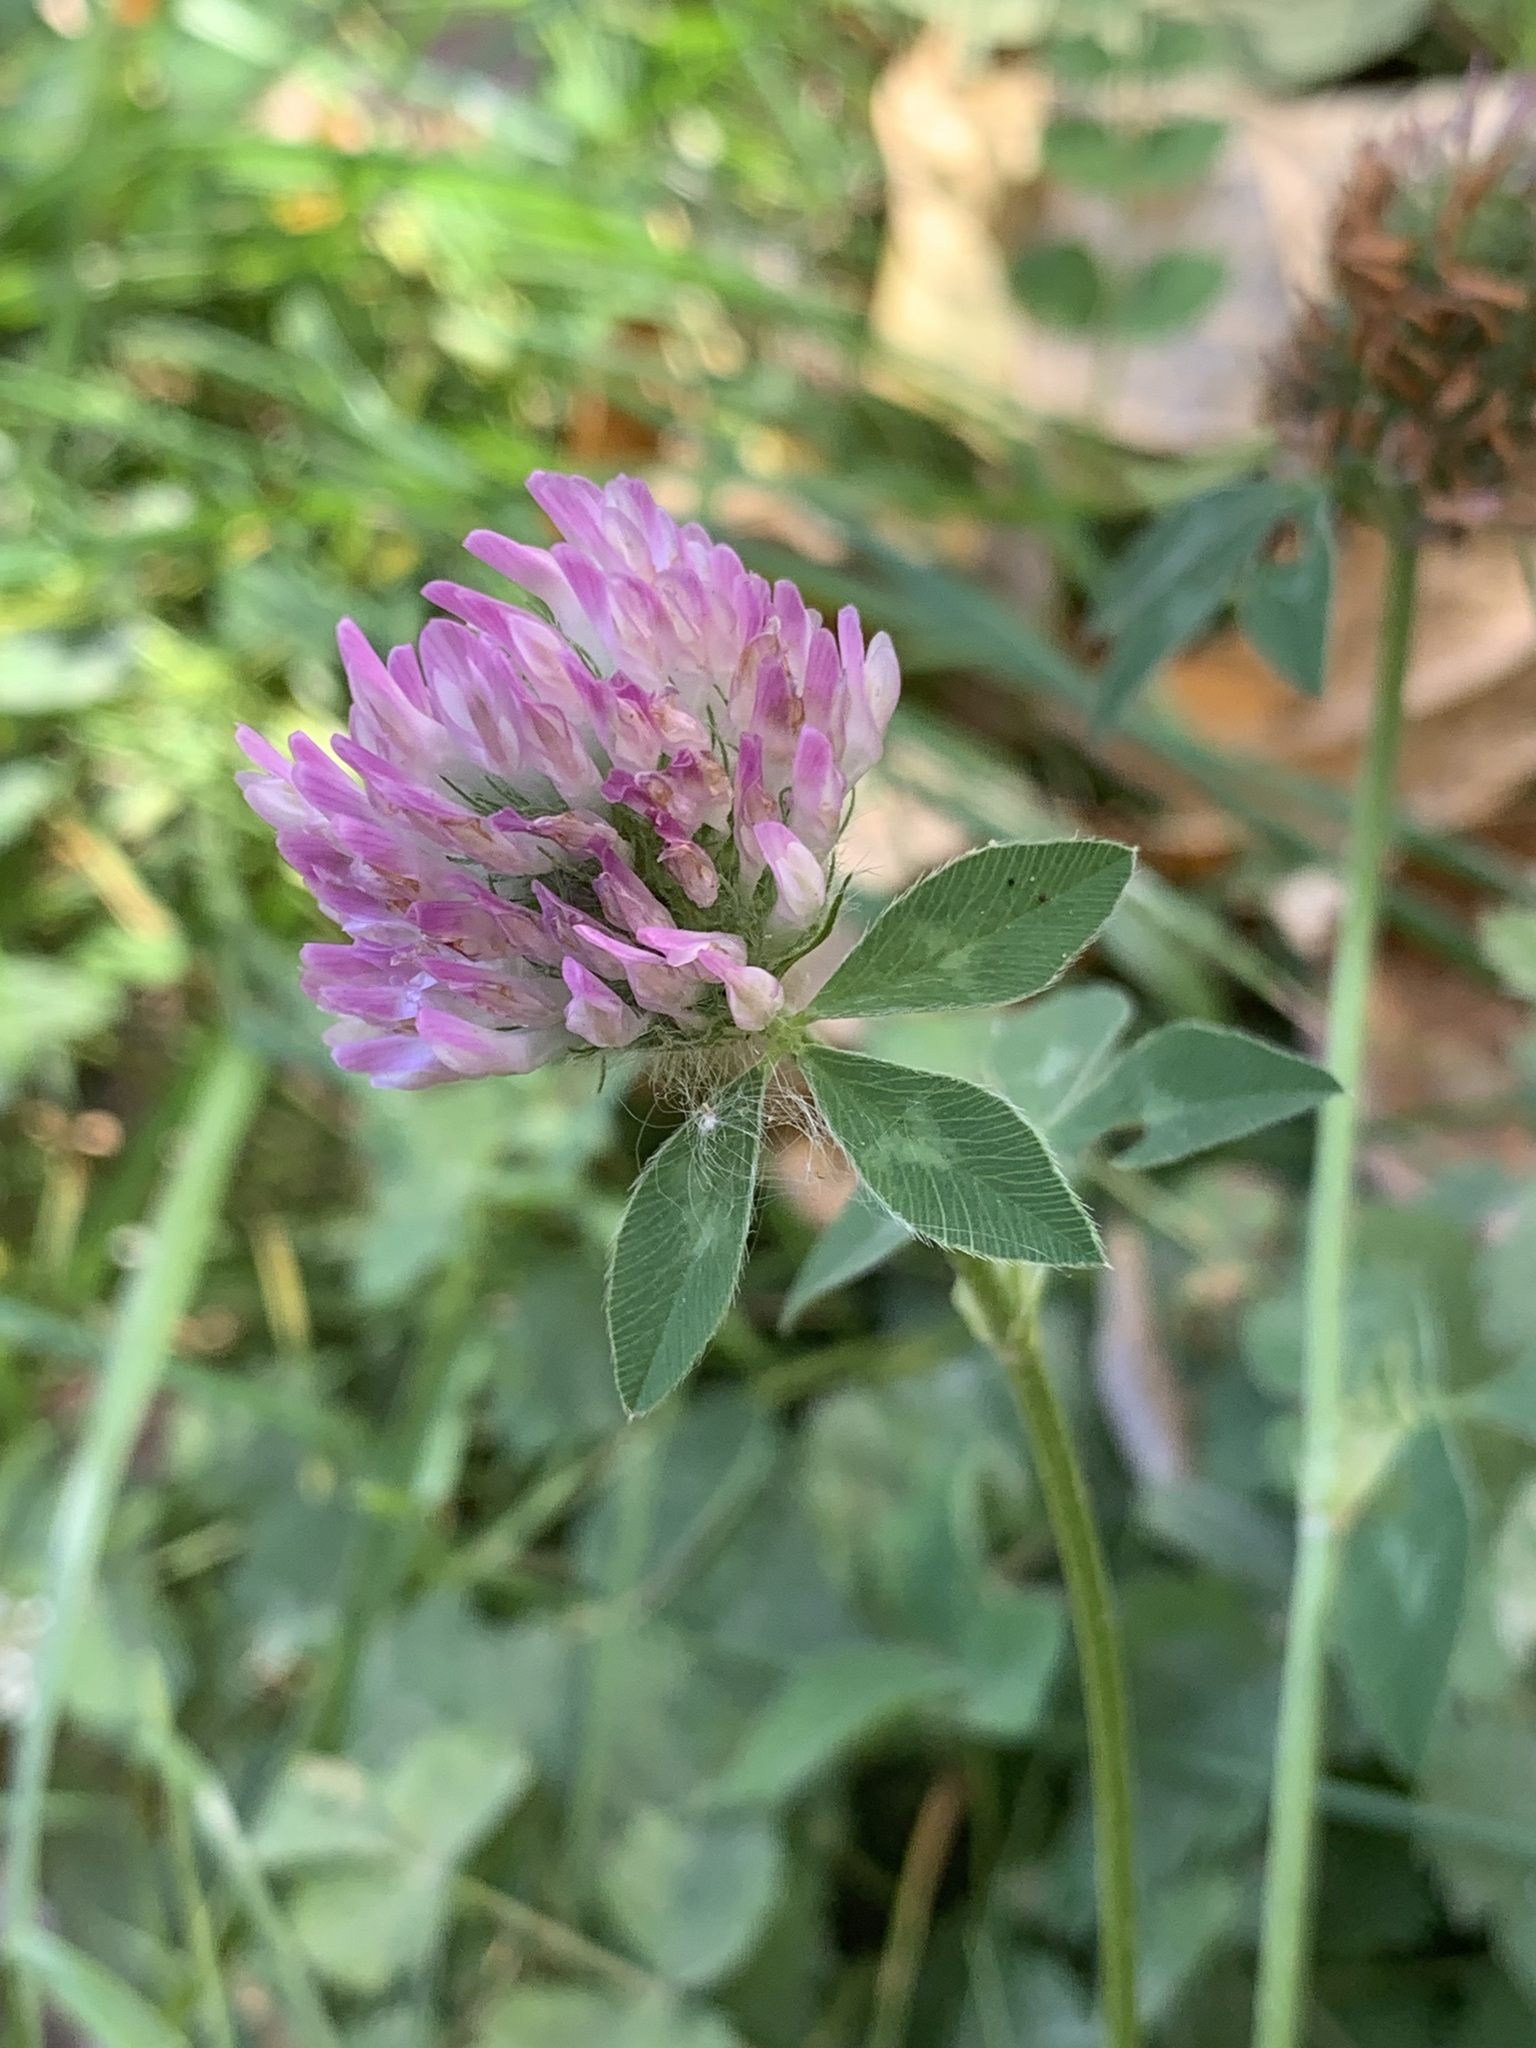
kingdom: Plantae
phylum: Tracheophyta
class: Magnoliopsida
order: Fabales
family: Fabaceae
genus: Trifolium
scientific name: Trifolium pratense
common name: Red clover
